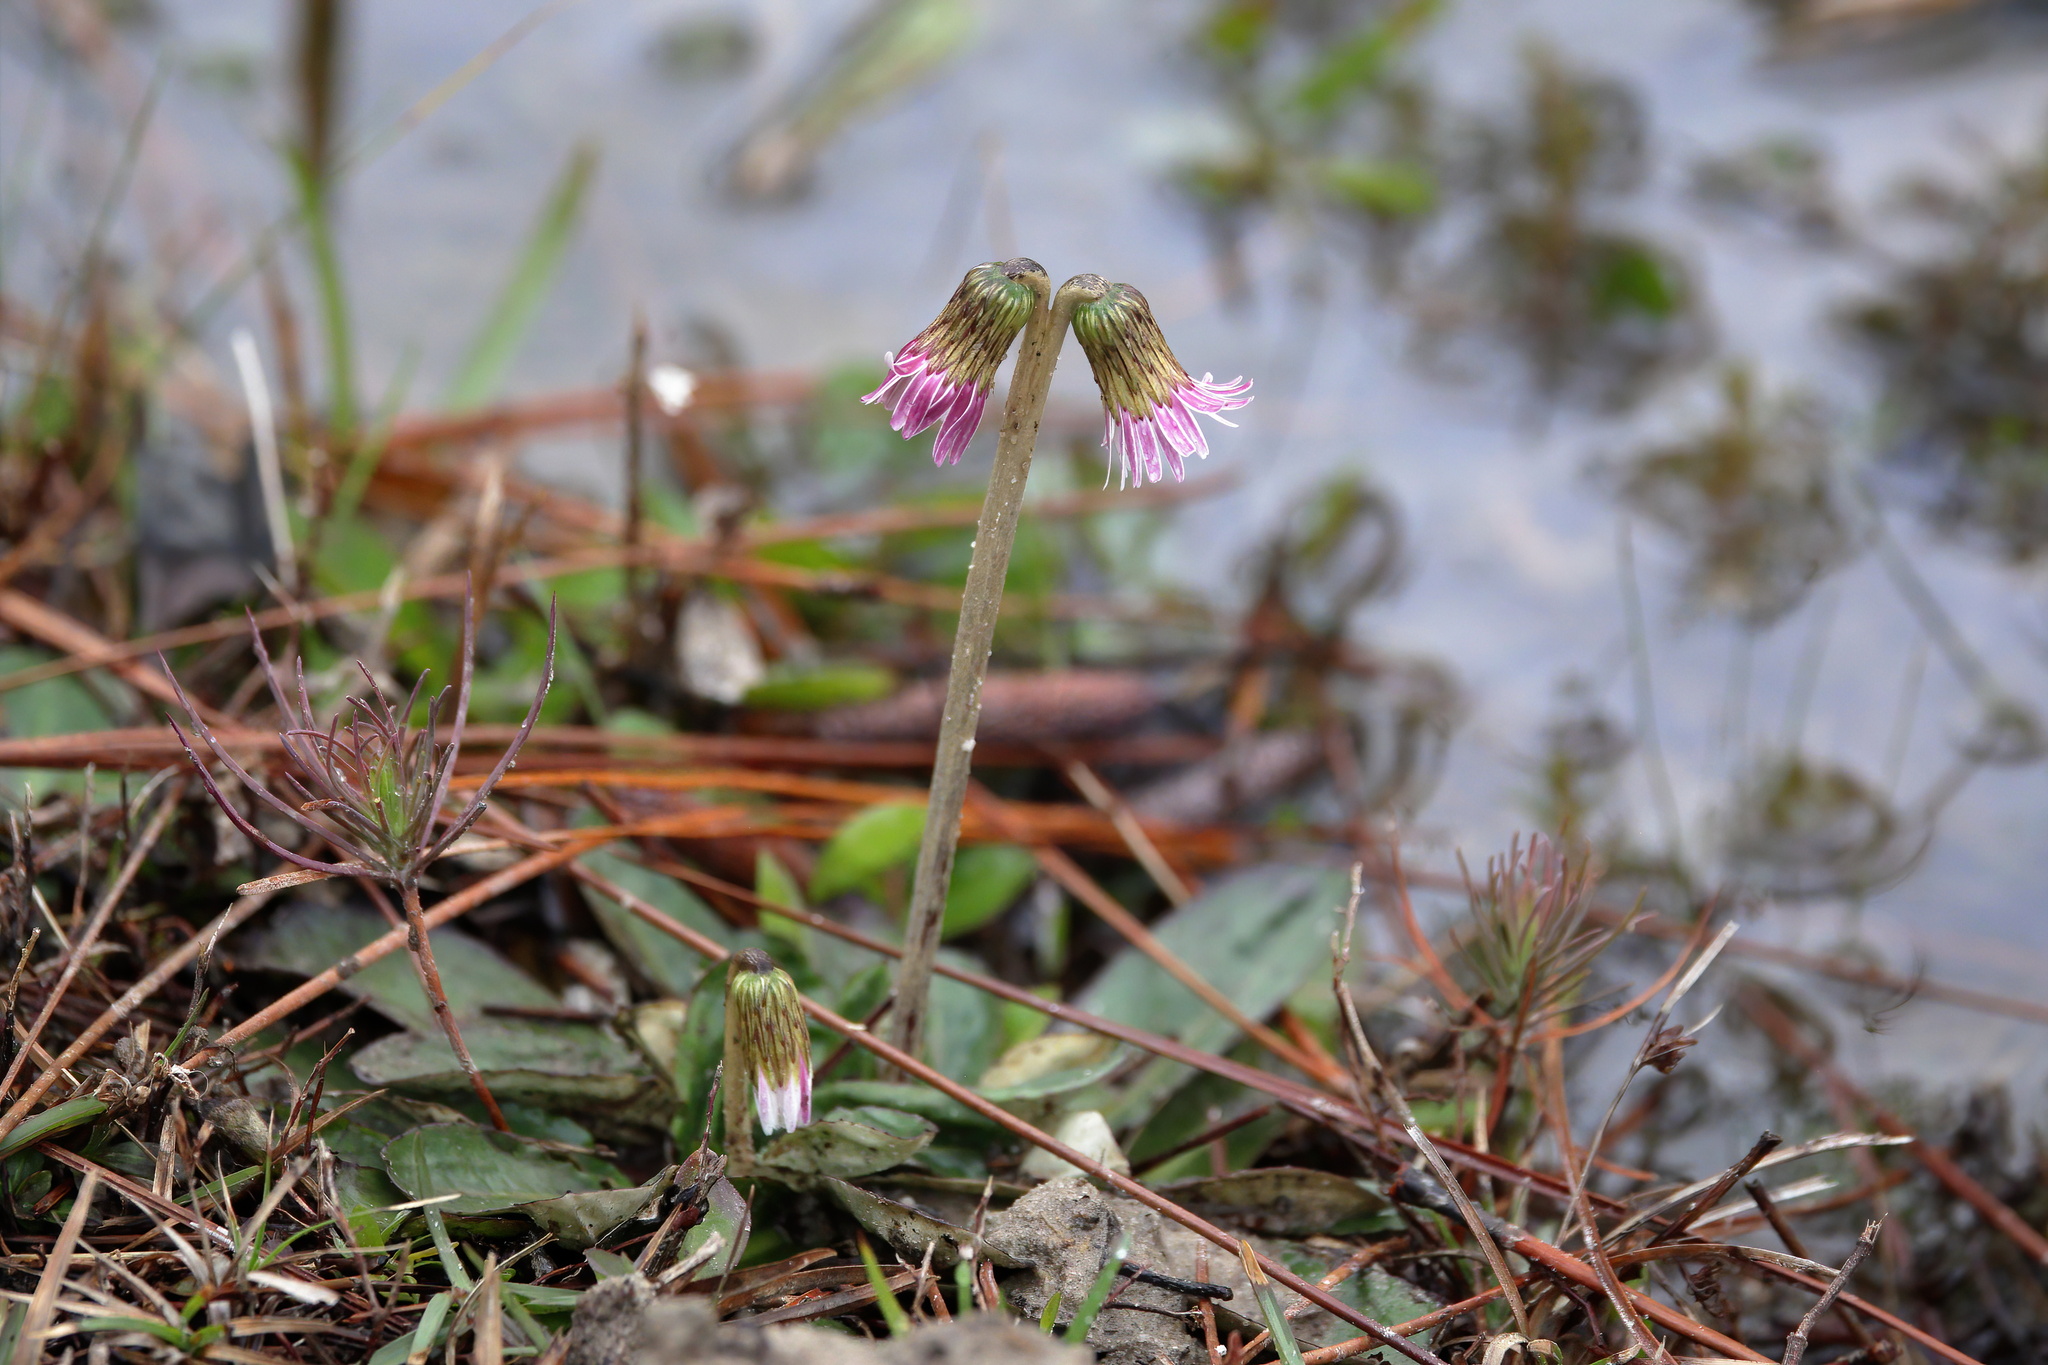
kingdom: Plantae
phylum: Tracheophyta
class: Magnoliopsida
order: Asterales
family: Asteraceae
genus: Chaptalia
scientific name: Chaptalia tomentosa
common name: Woolly sunbonnet
